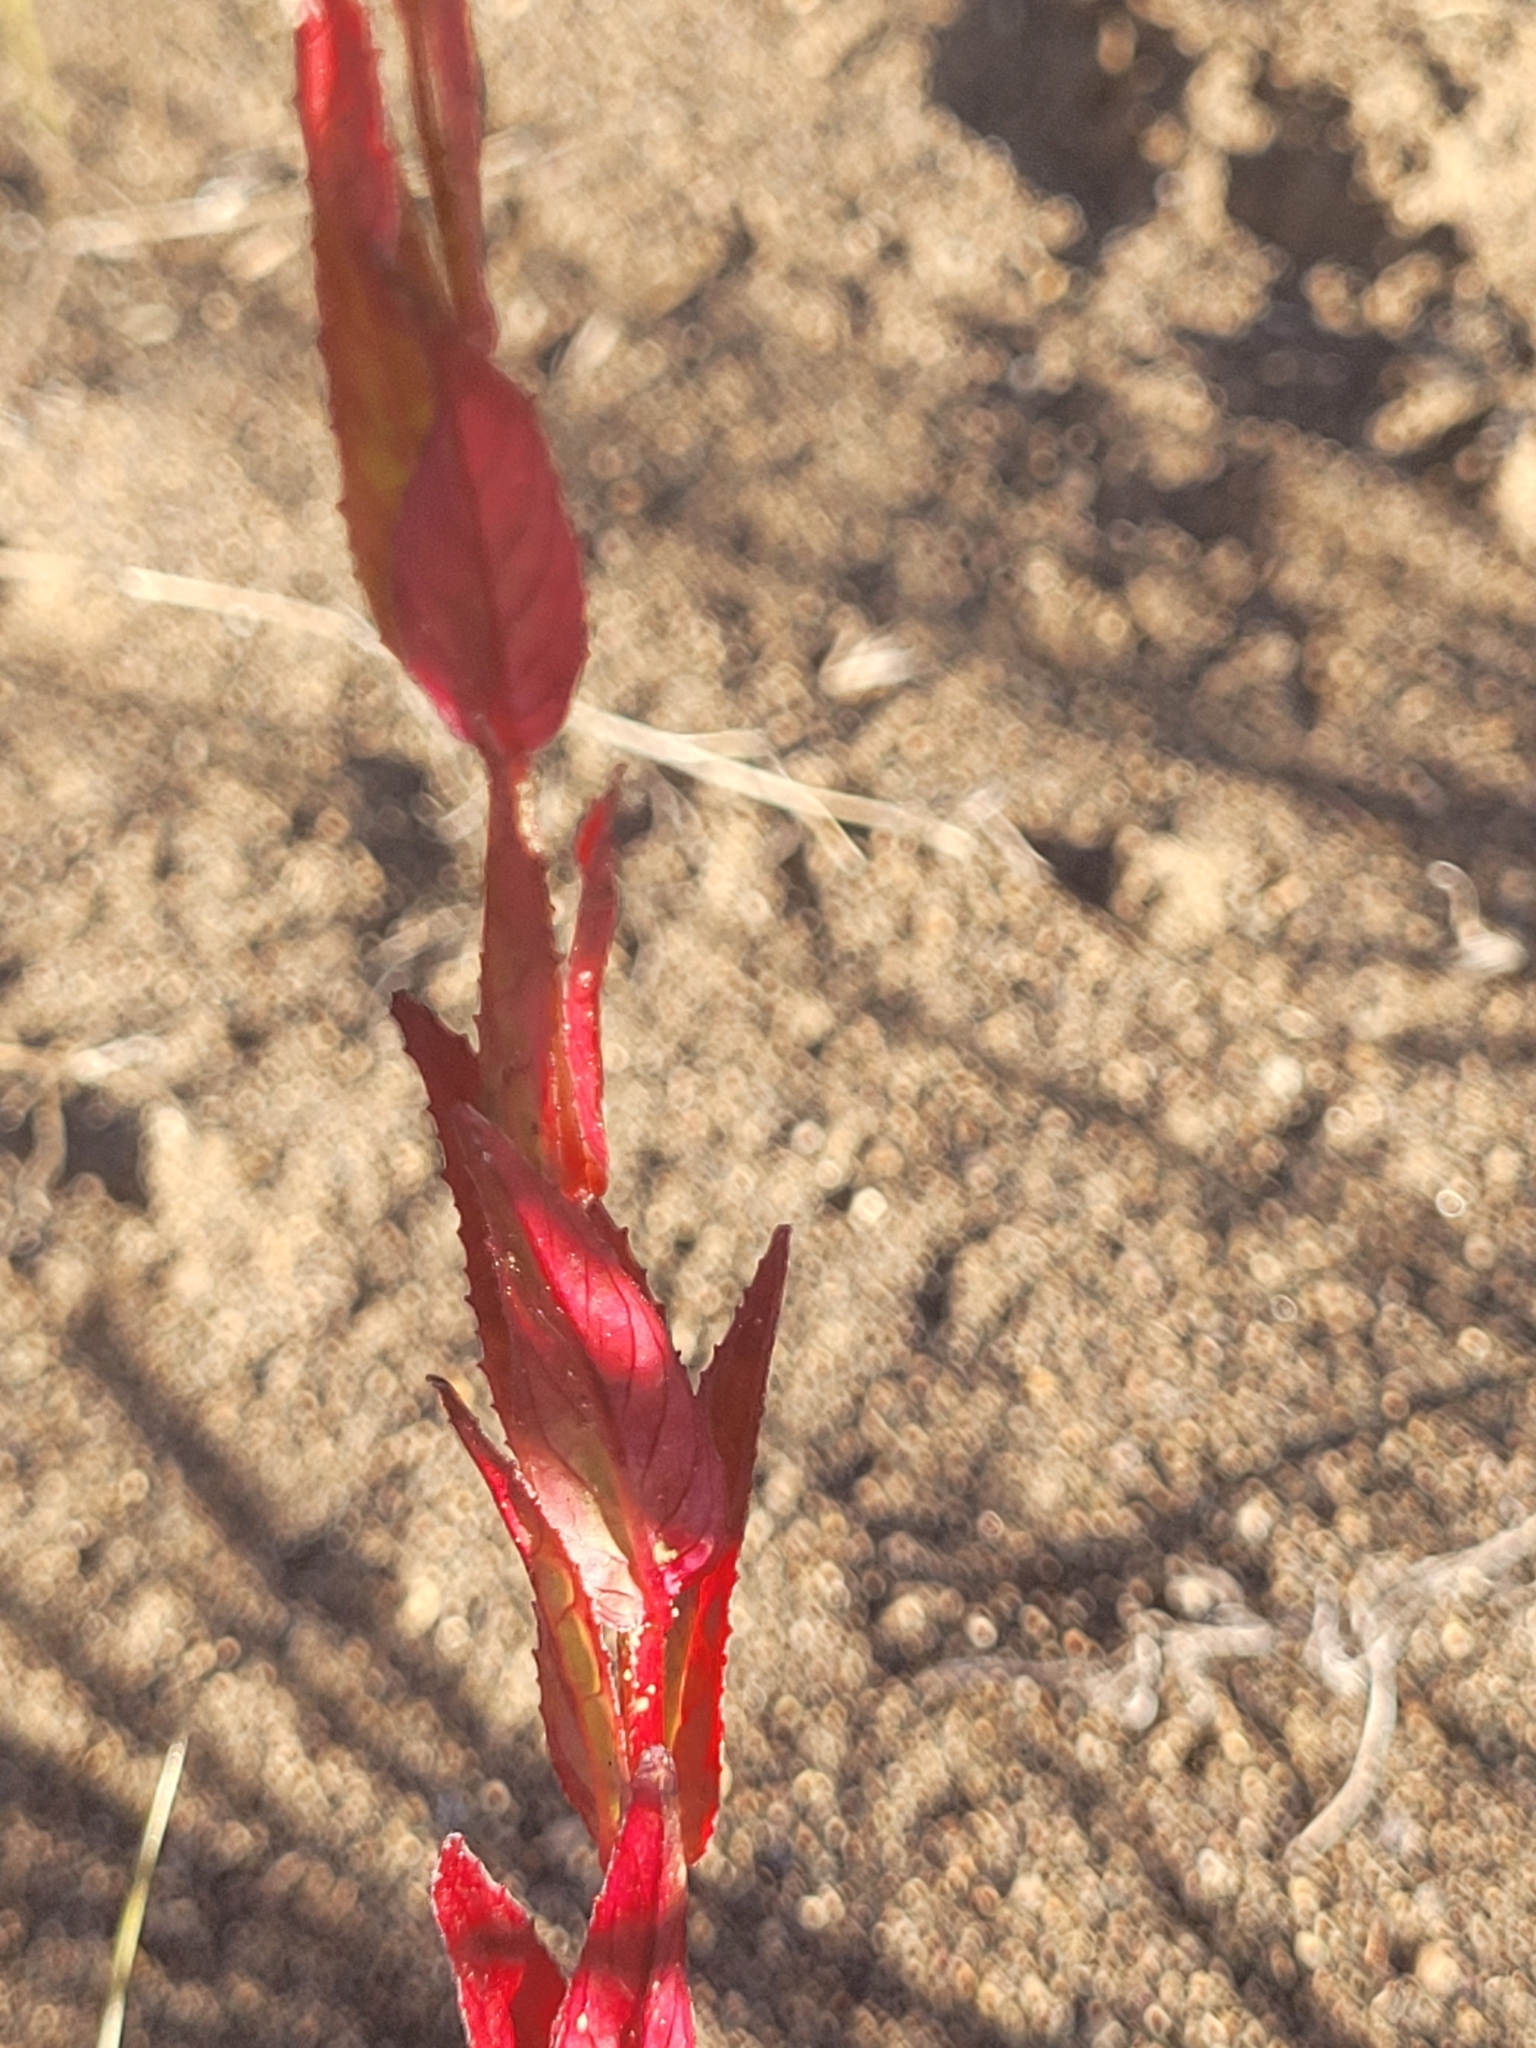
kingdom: Plantae
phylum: Tracheophyta
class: Magnoliopsida
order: Myrtales
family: Onagraceae
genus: Epilobium
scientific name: Epilobium ciliatum
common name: American willowherb
